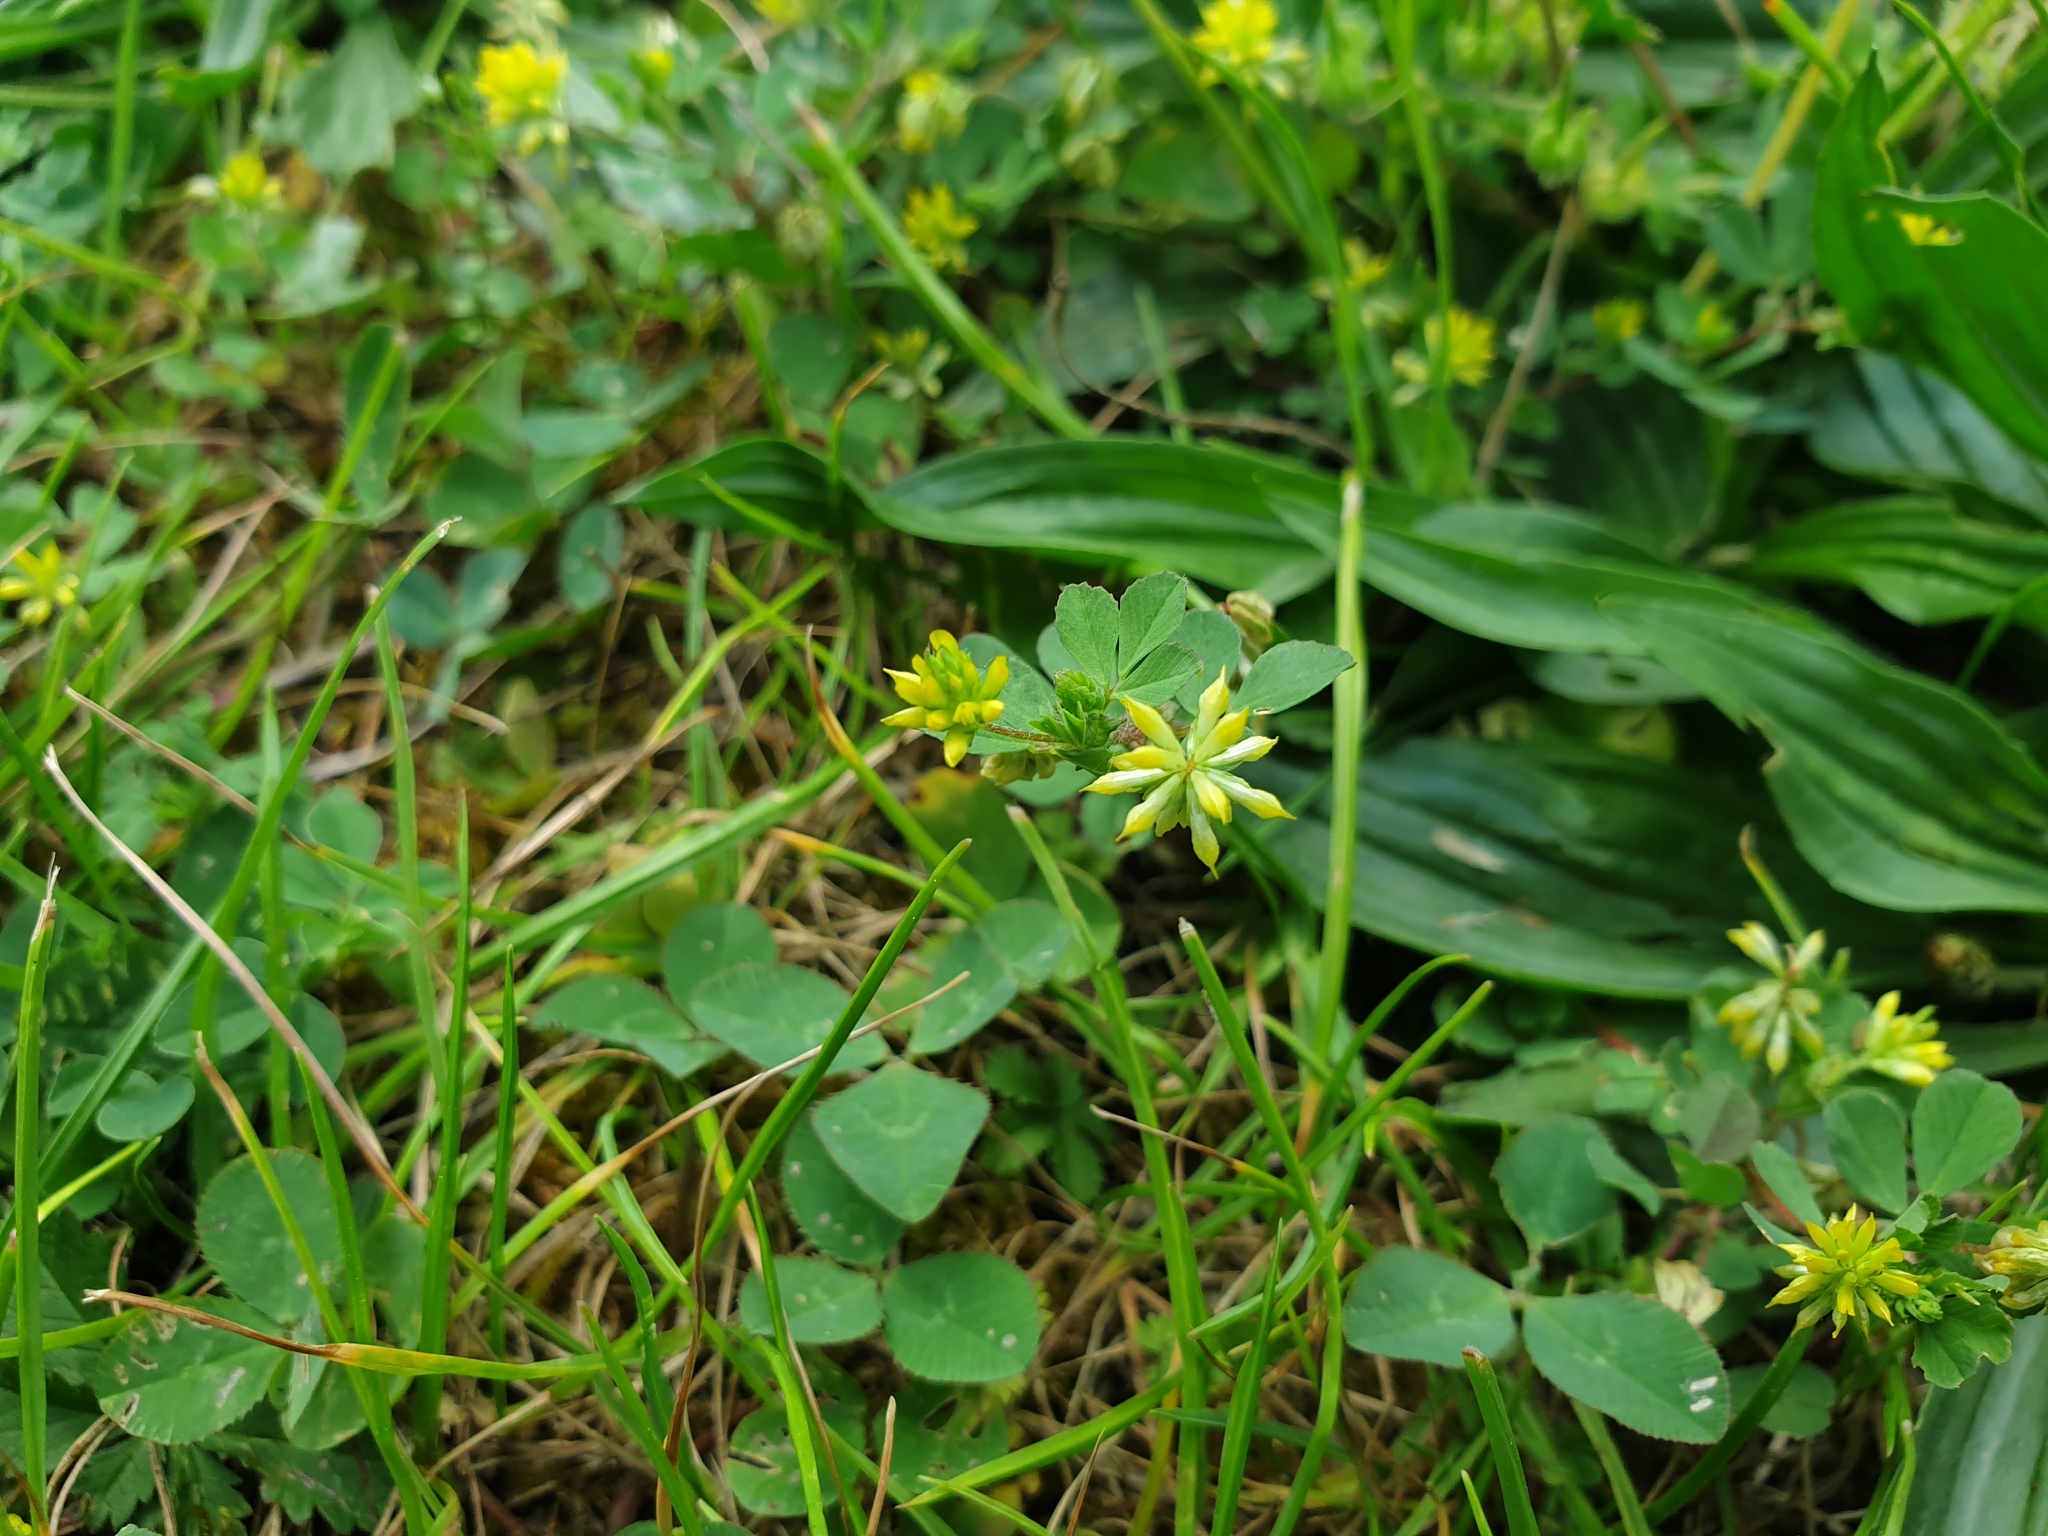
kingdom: Plantae
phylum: Tracheophyta
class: Magnoliopsida
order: Fabales
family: Fabaceae
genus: Trifolium
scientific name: Trifolium dubium
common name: Suckling clover
